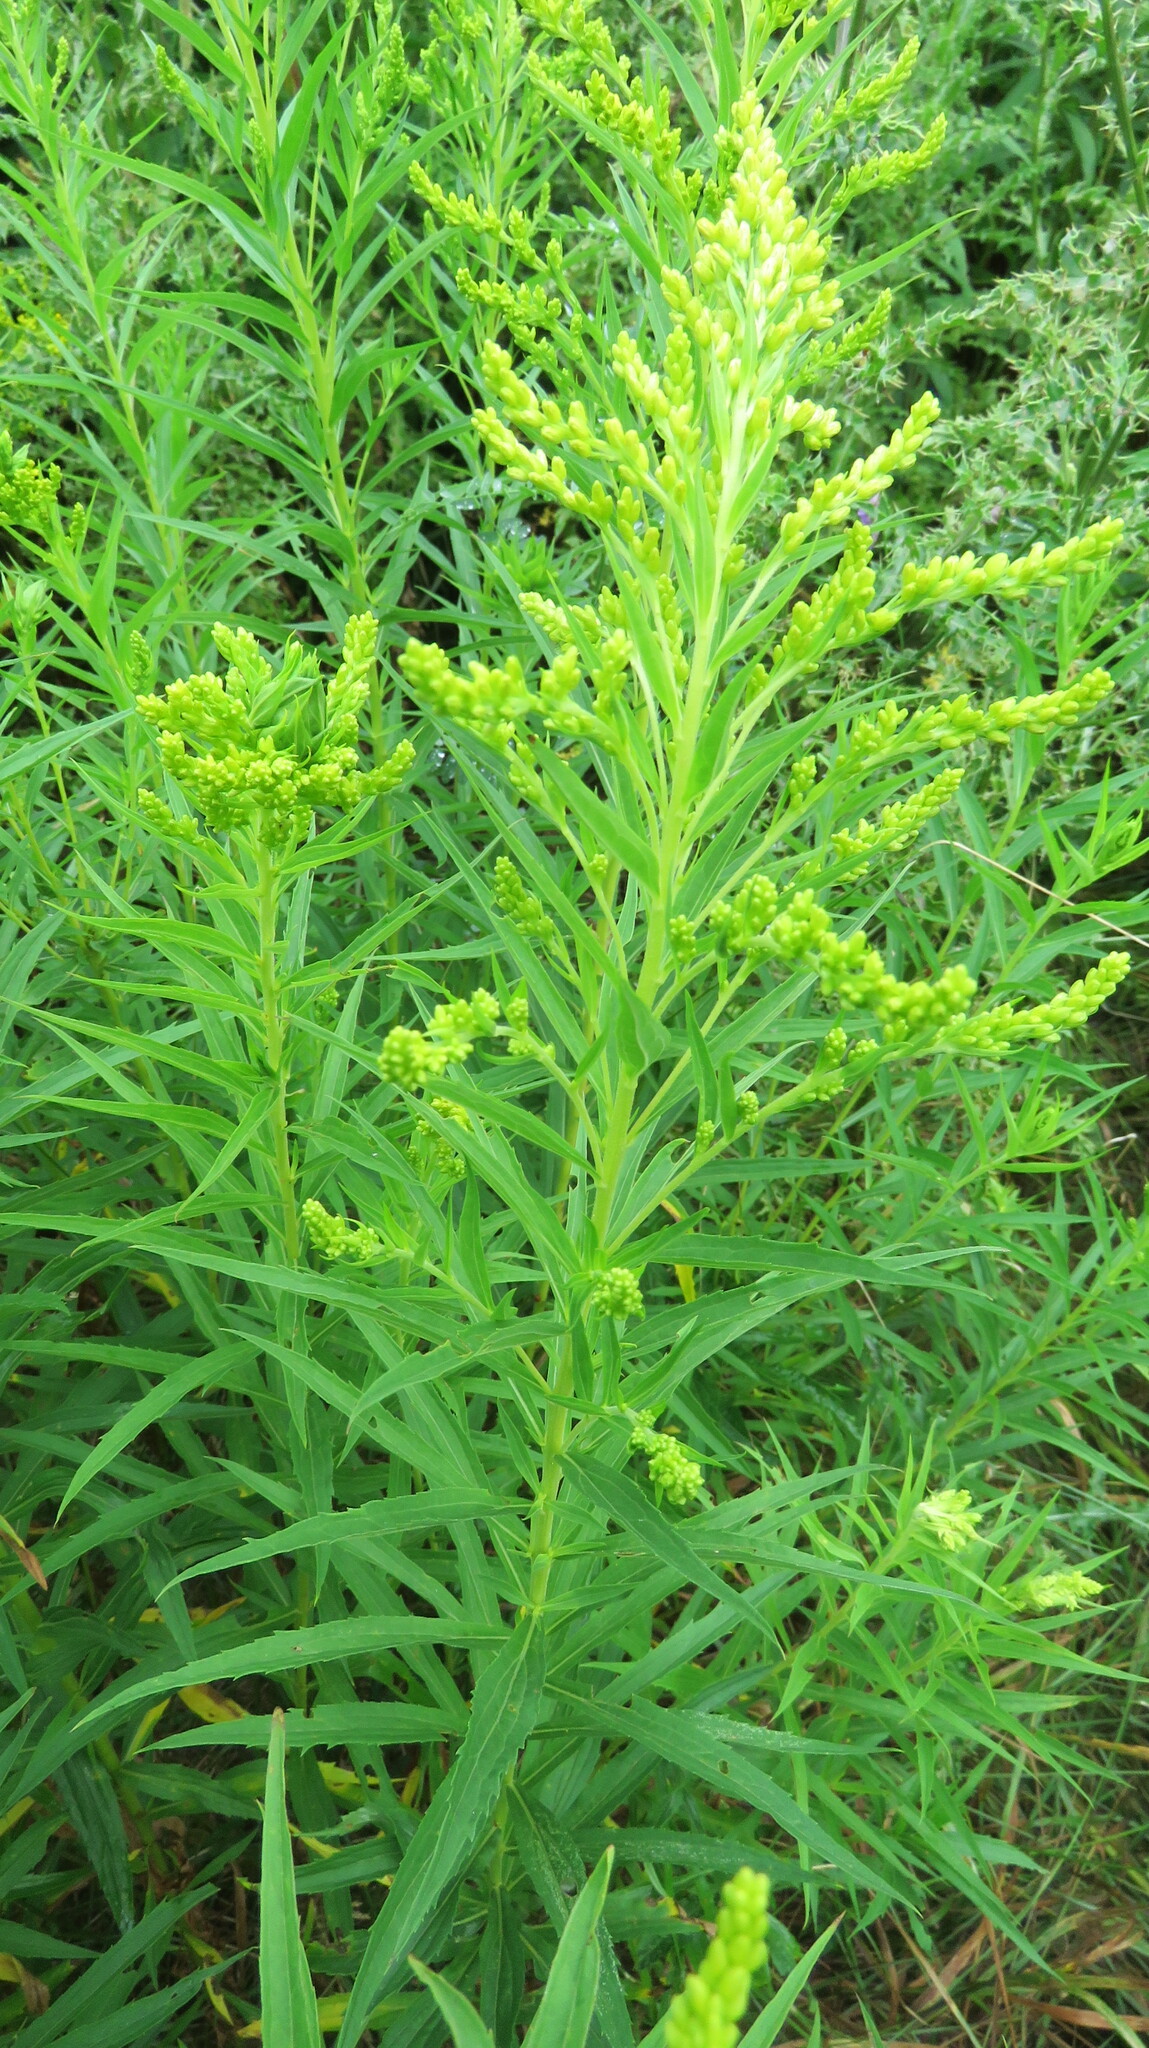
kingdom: Plantae
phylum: Tracheophyta
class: Magnoliopsida
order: Asterales
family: Asteraceae
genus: Solidago
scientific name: Solidago canadensis
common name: Canada goldenrod
